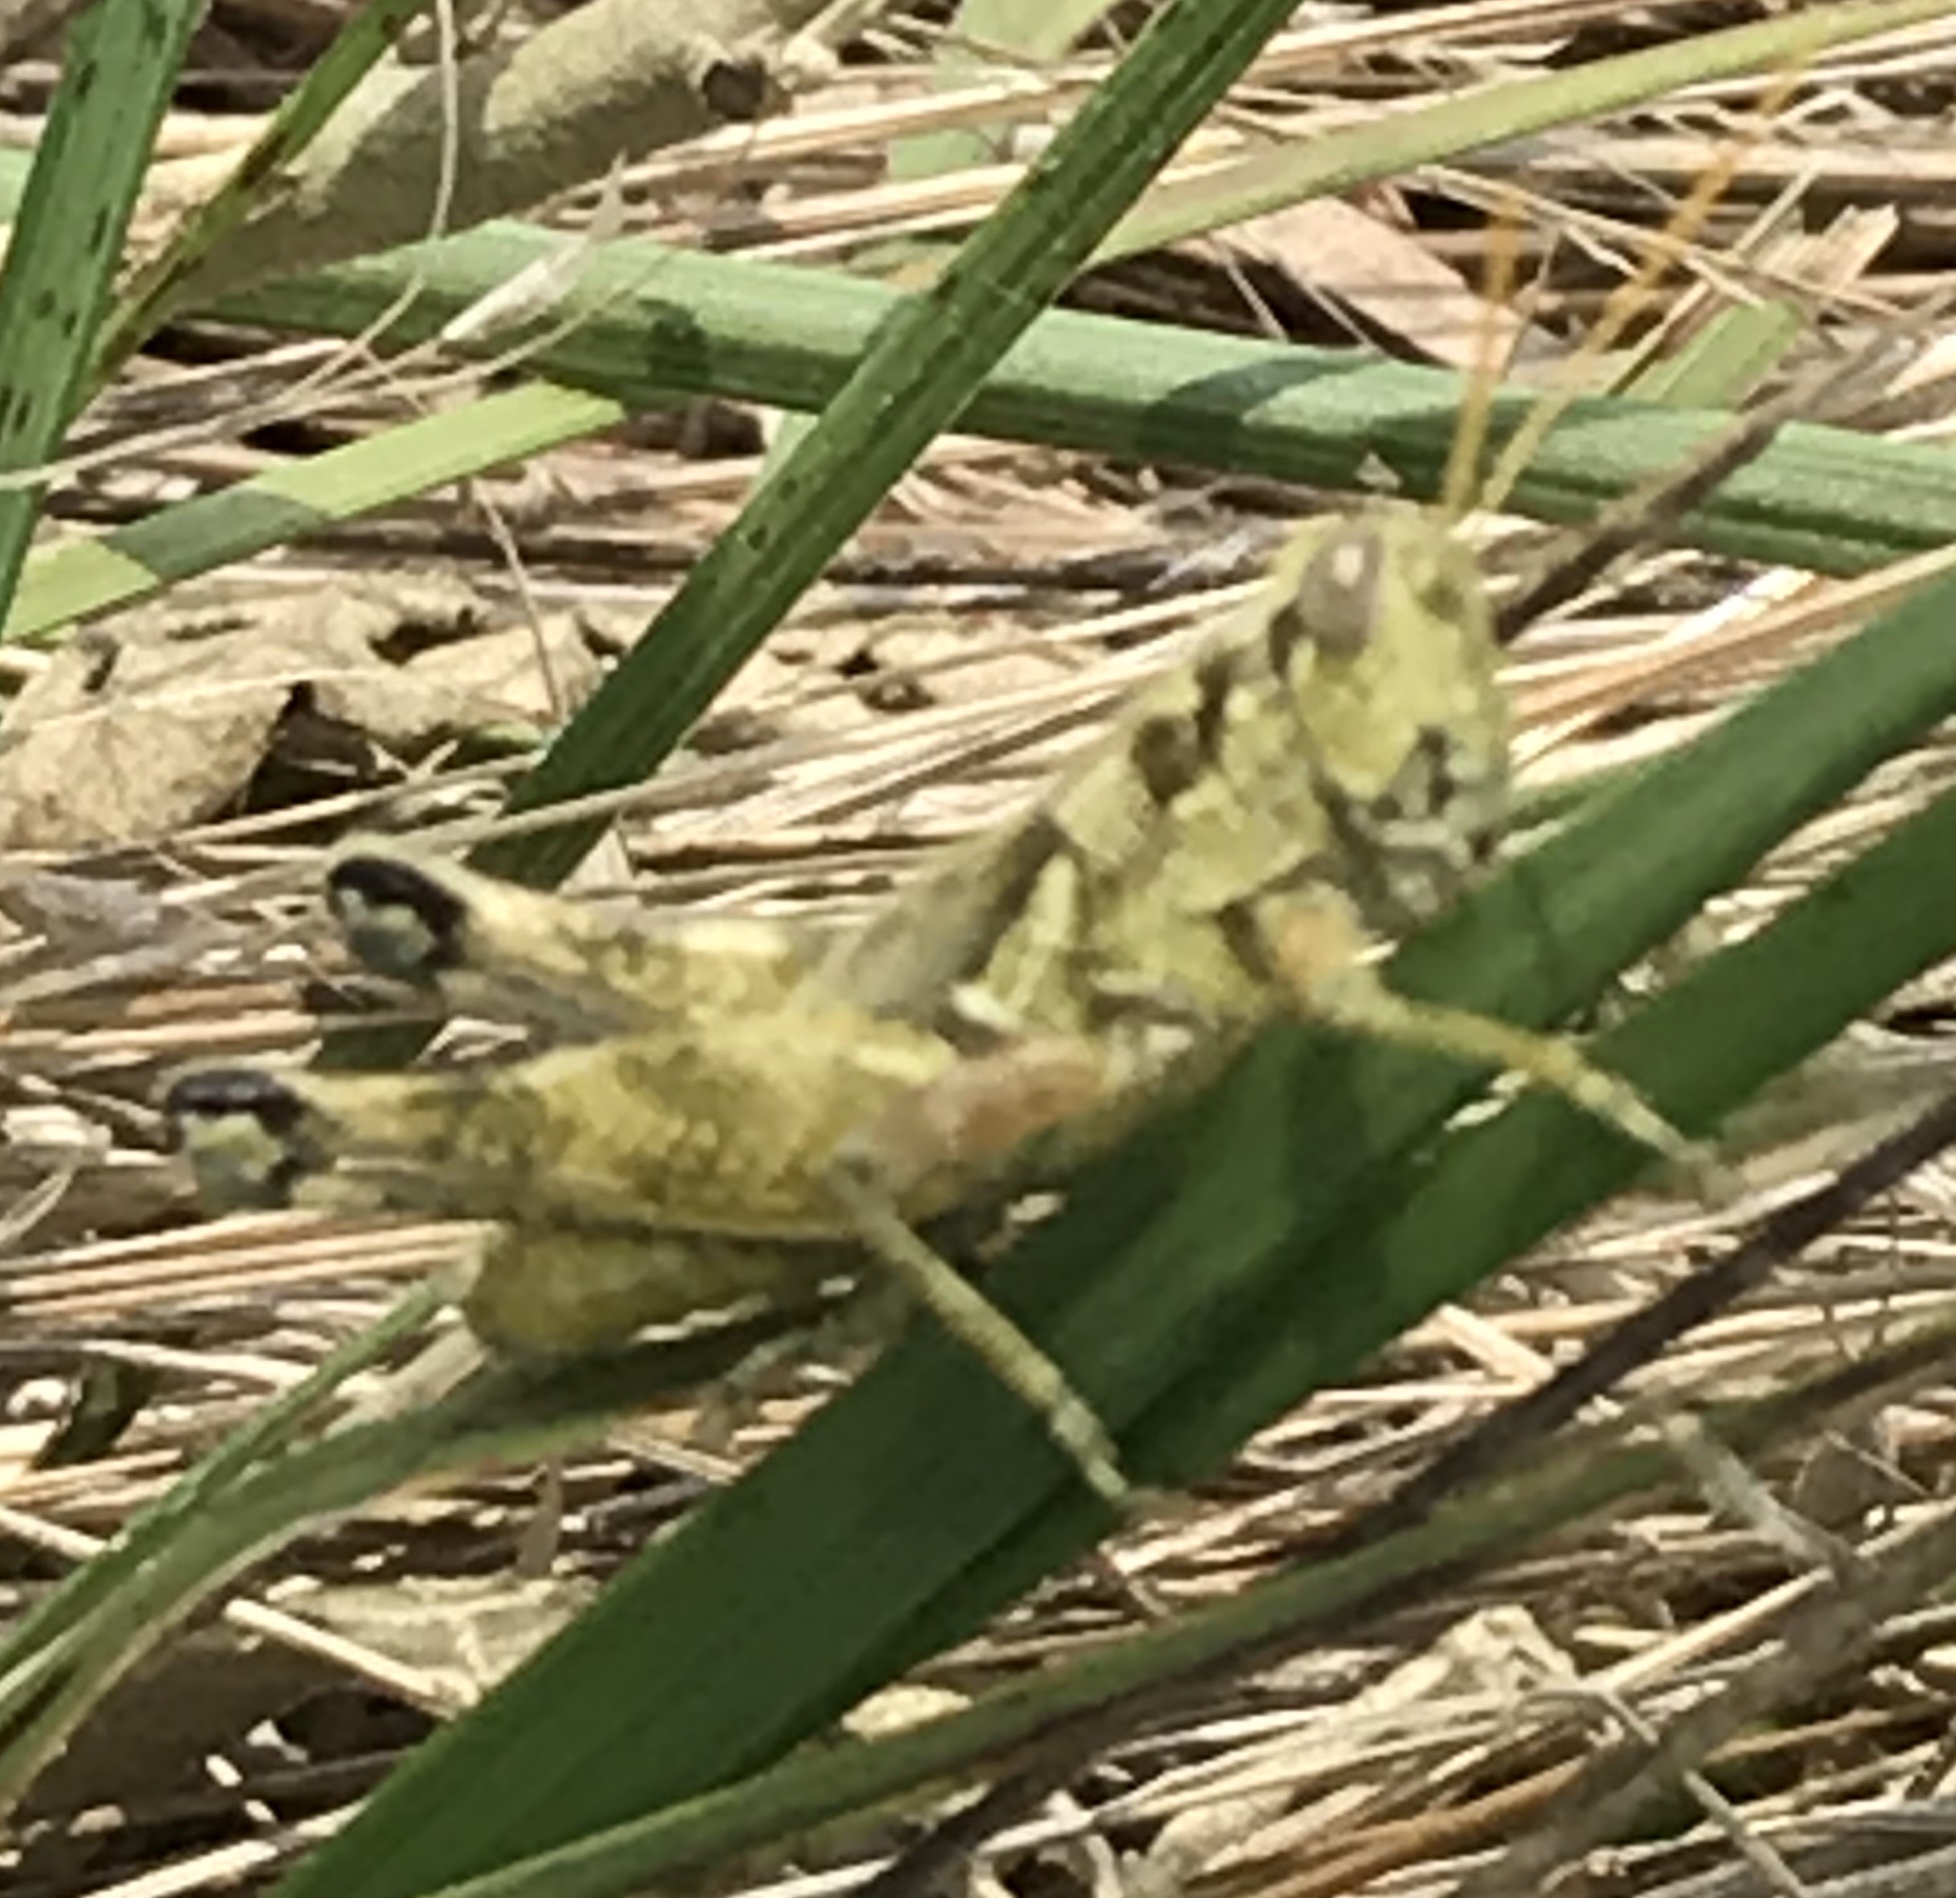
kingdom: Animalia
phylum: Arthropoda
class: Insecta
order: Orthoptera
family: Acrididae
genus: Campylacantha
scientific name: Campylacantha olivacea
